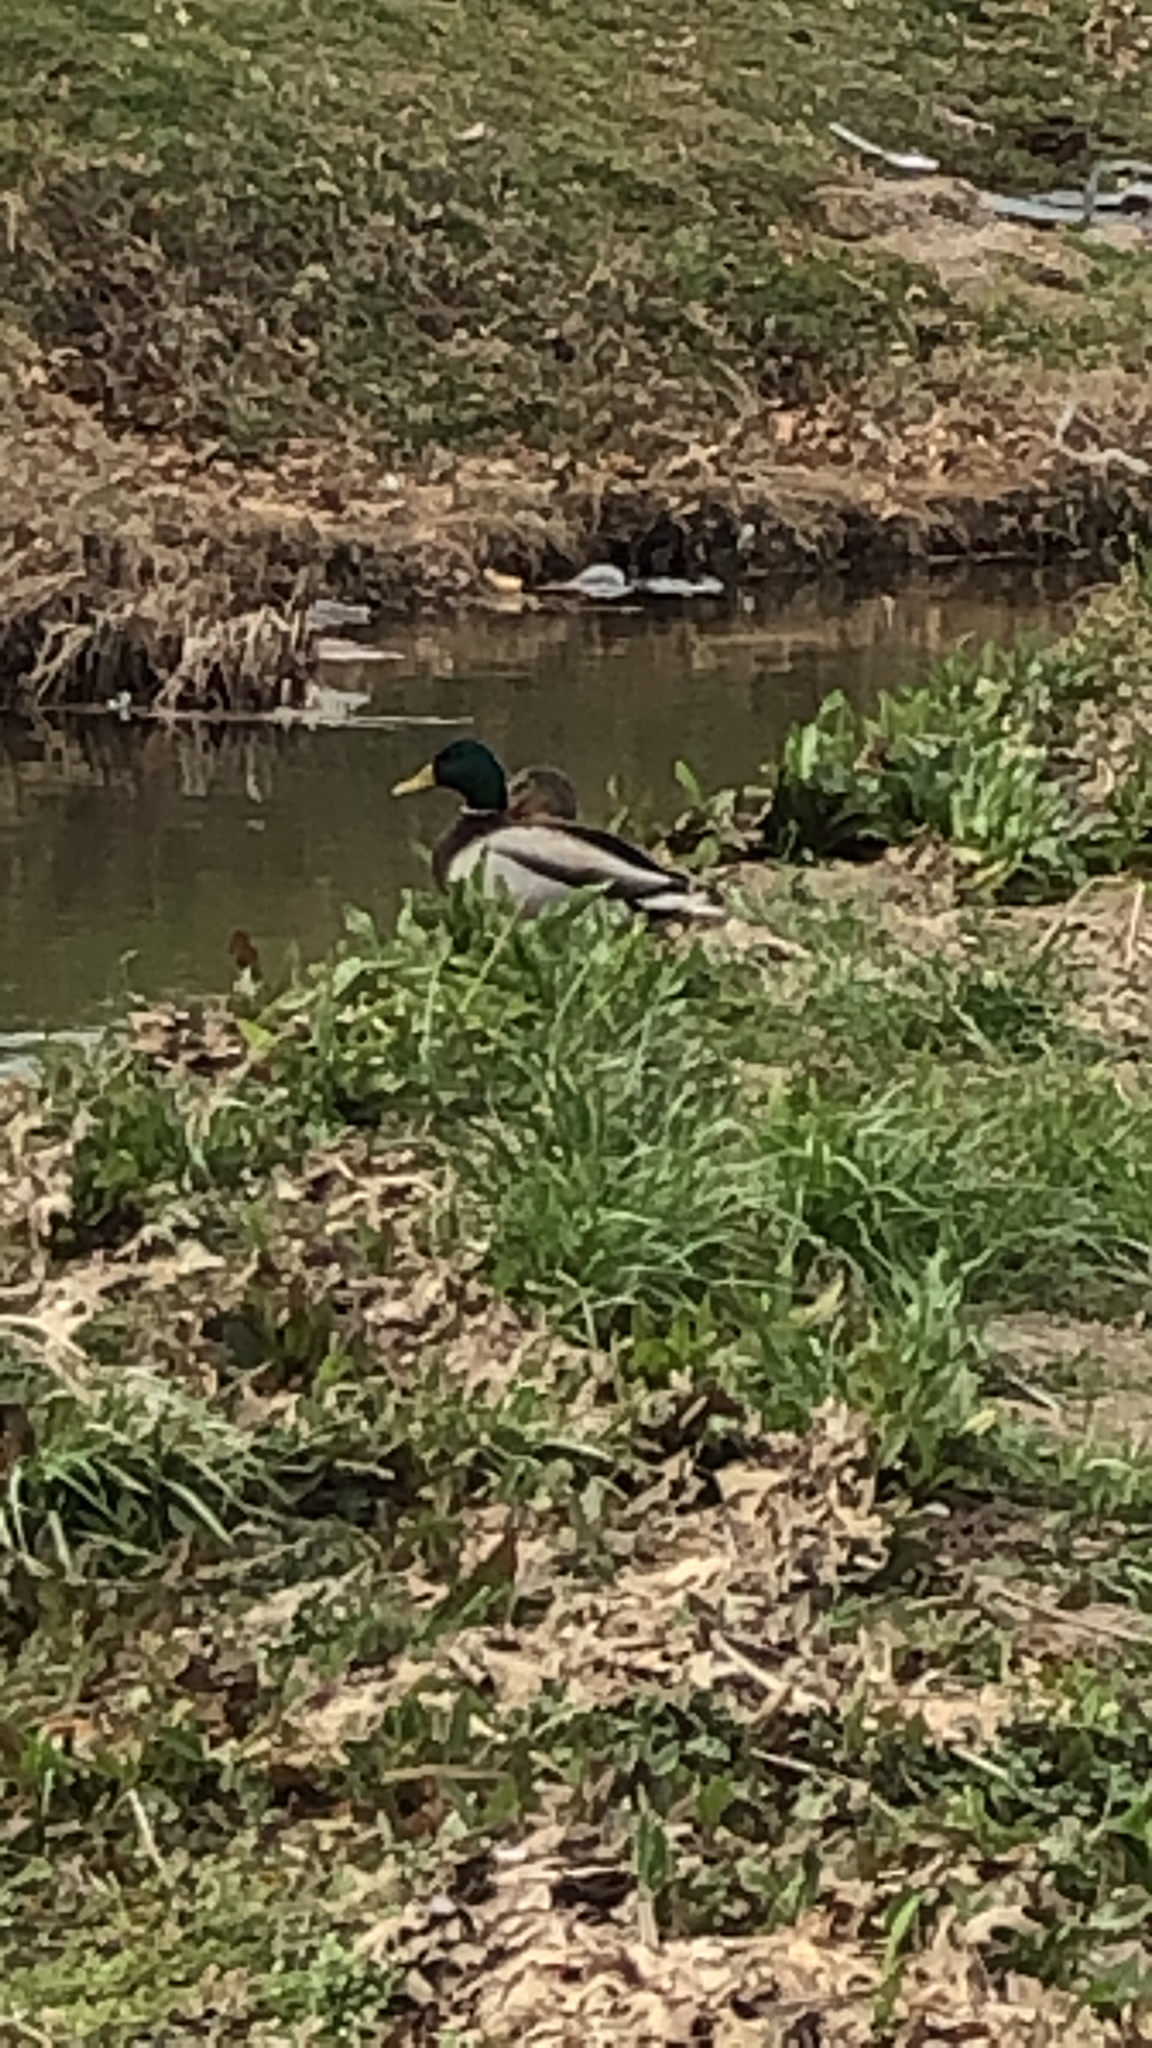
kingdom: Animalia
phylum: Chordata
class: Aves
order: Anseriformes
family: Anatidae
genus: Anas
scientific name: Anas platyrhynchos
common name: Mallard
